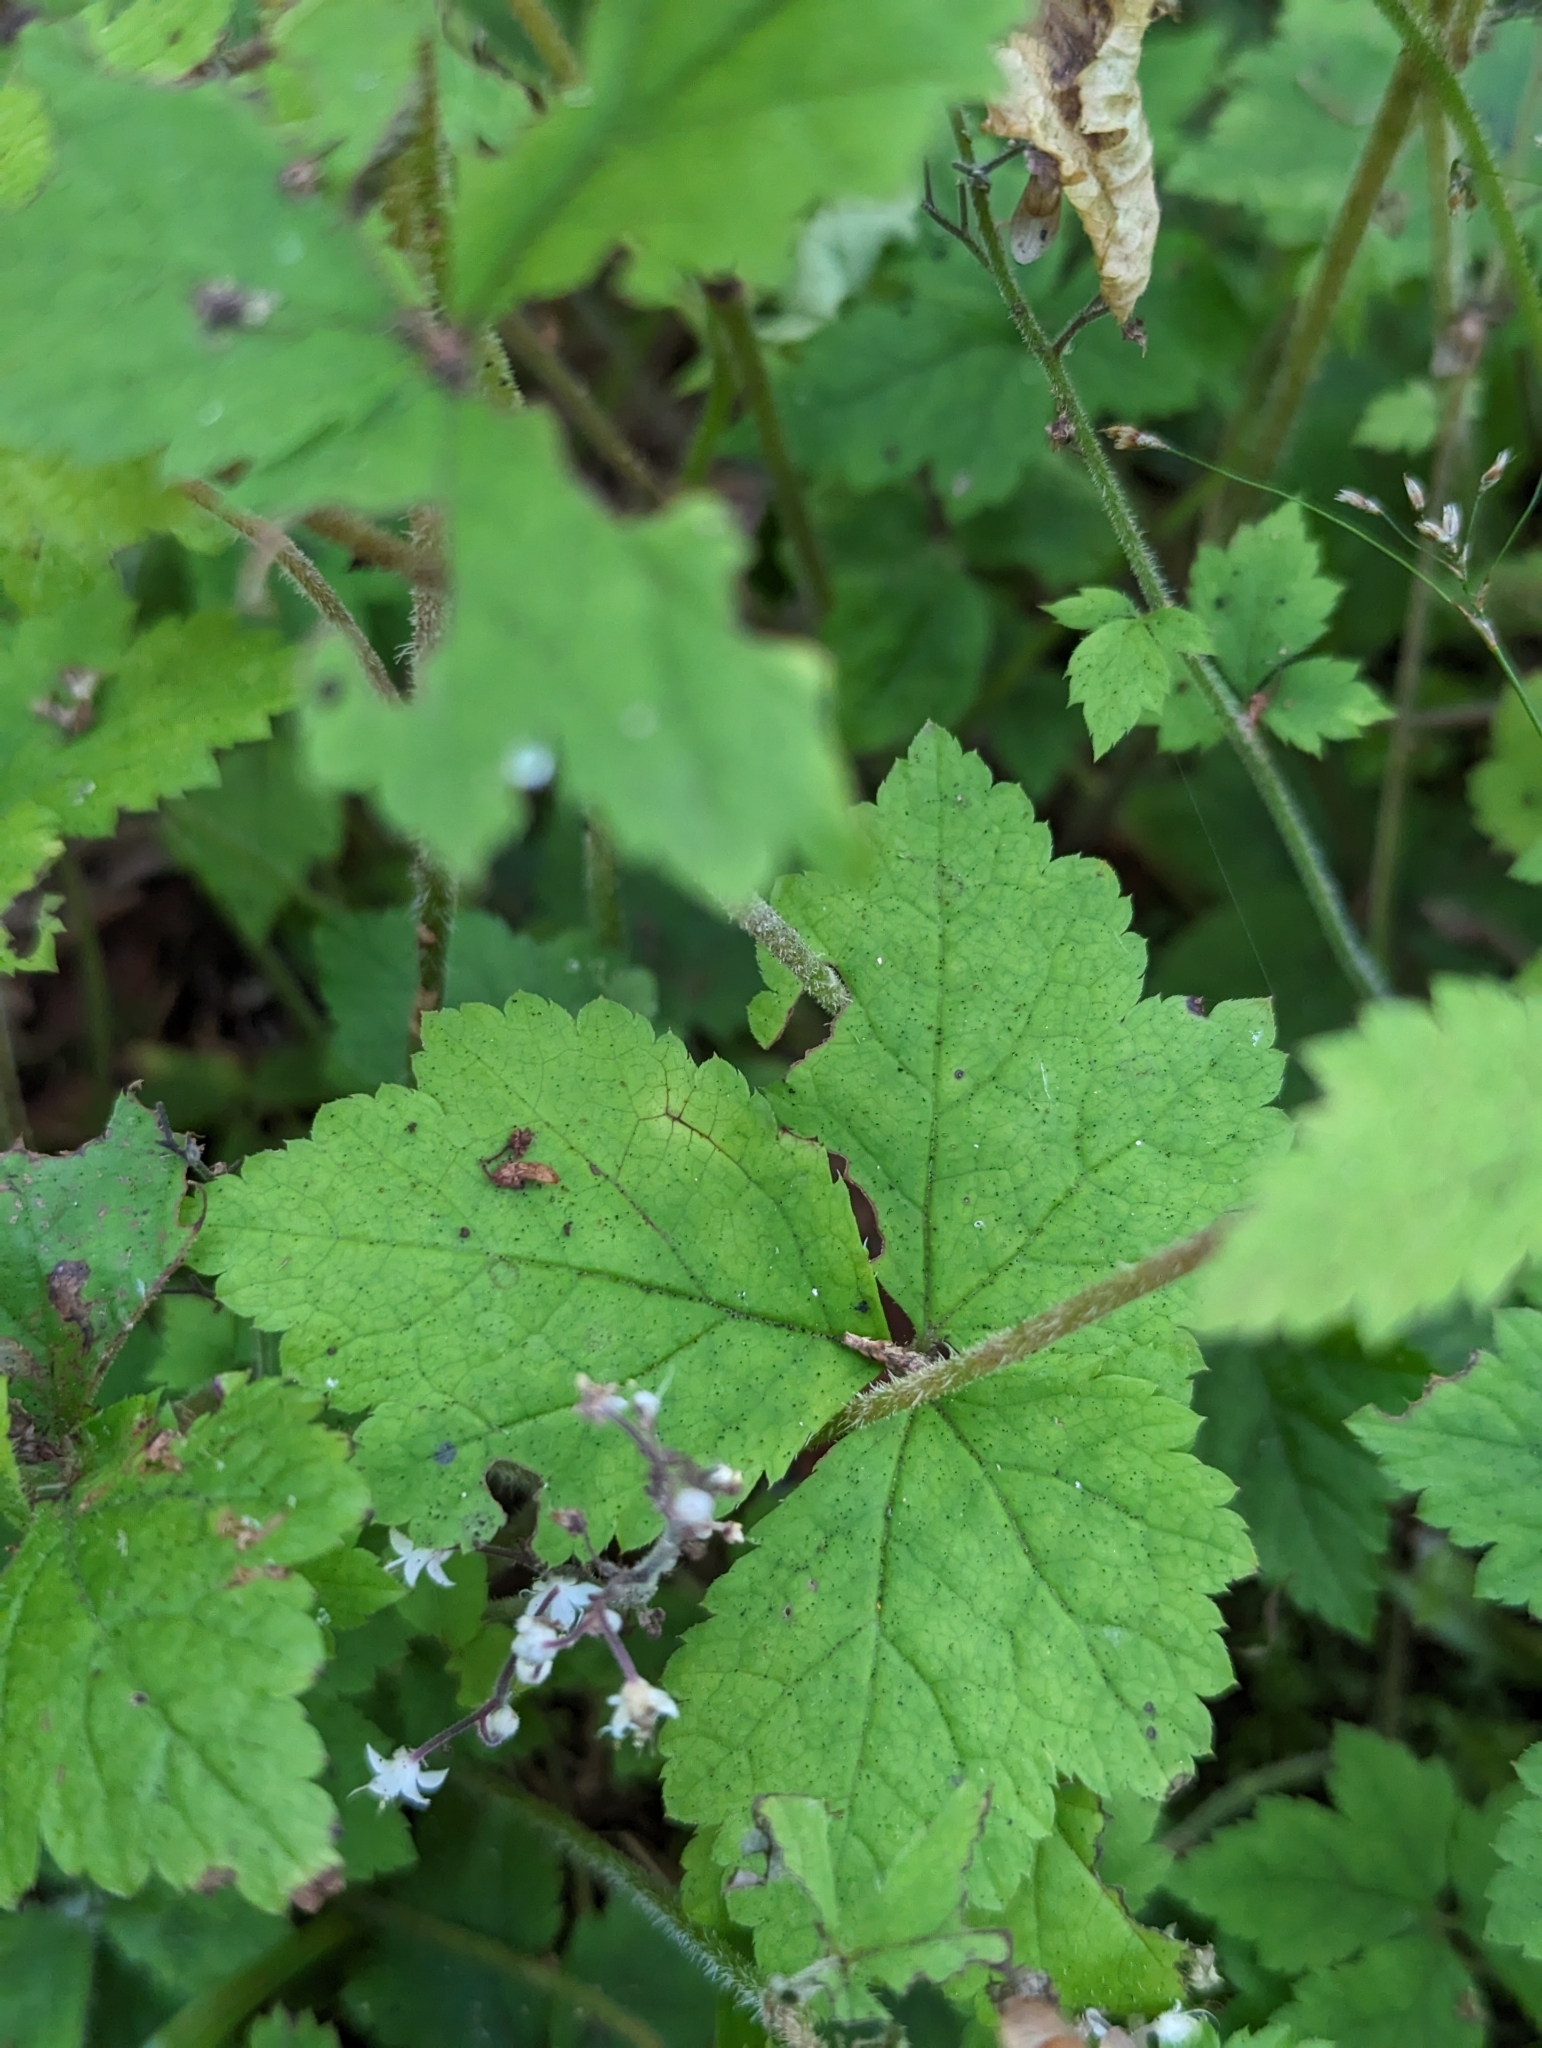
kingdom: Plantae
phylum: Tracheophyta
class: Magnoliopsida
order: Saxifragales
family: Saxifragaceae
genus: Tiarella
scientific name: Tiarella trifoliata
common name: Sugar-scoop
